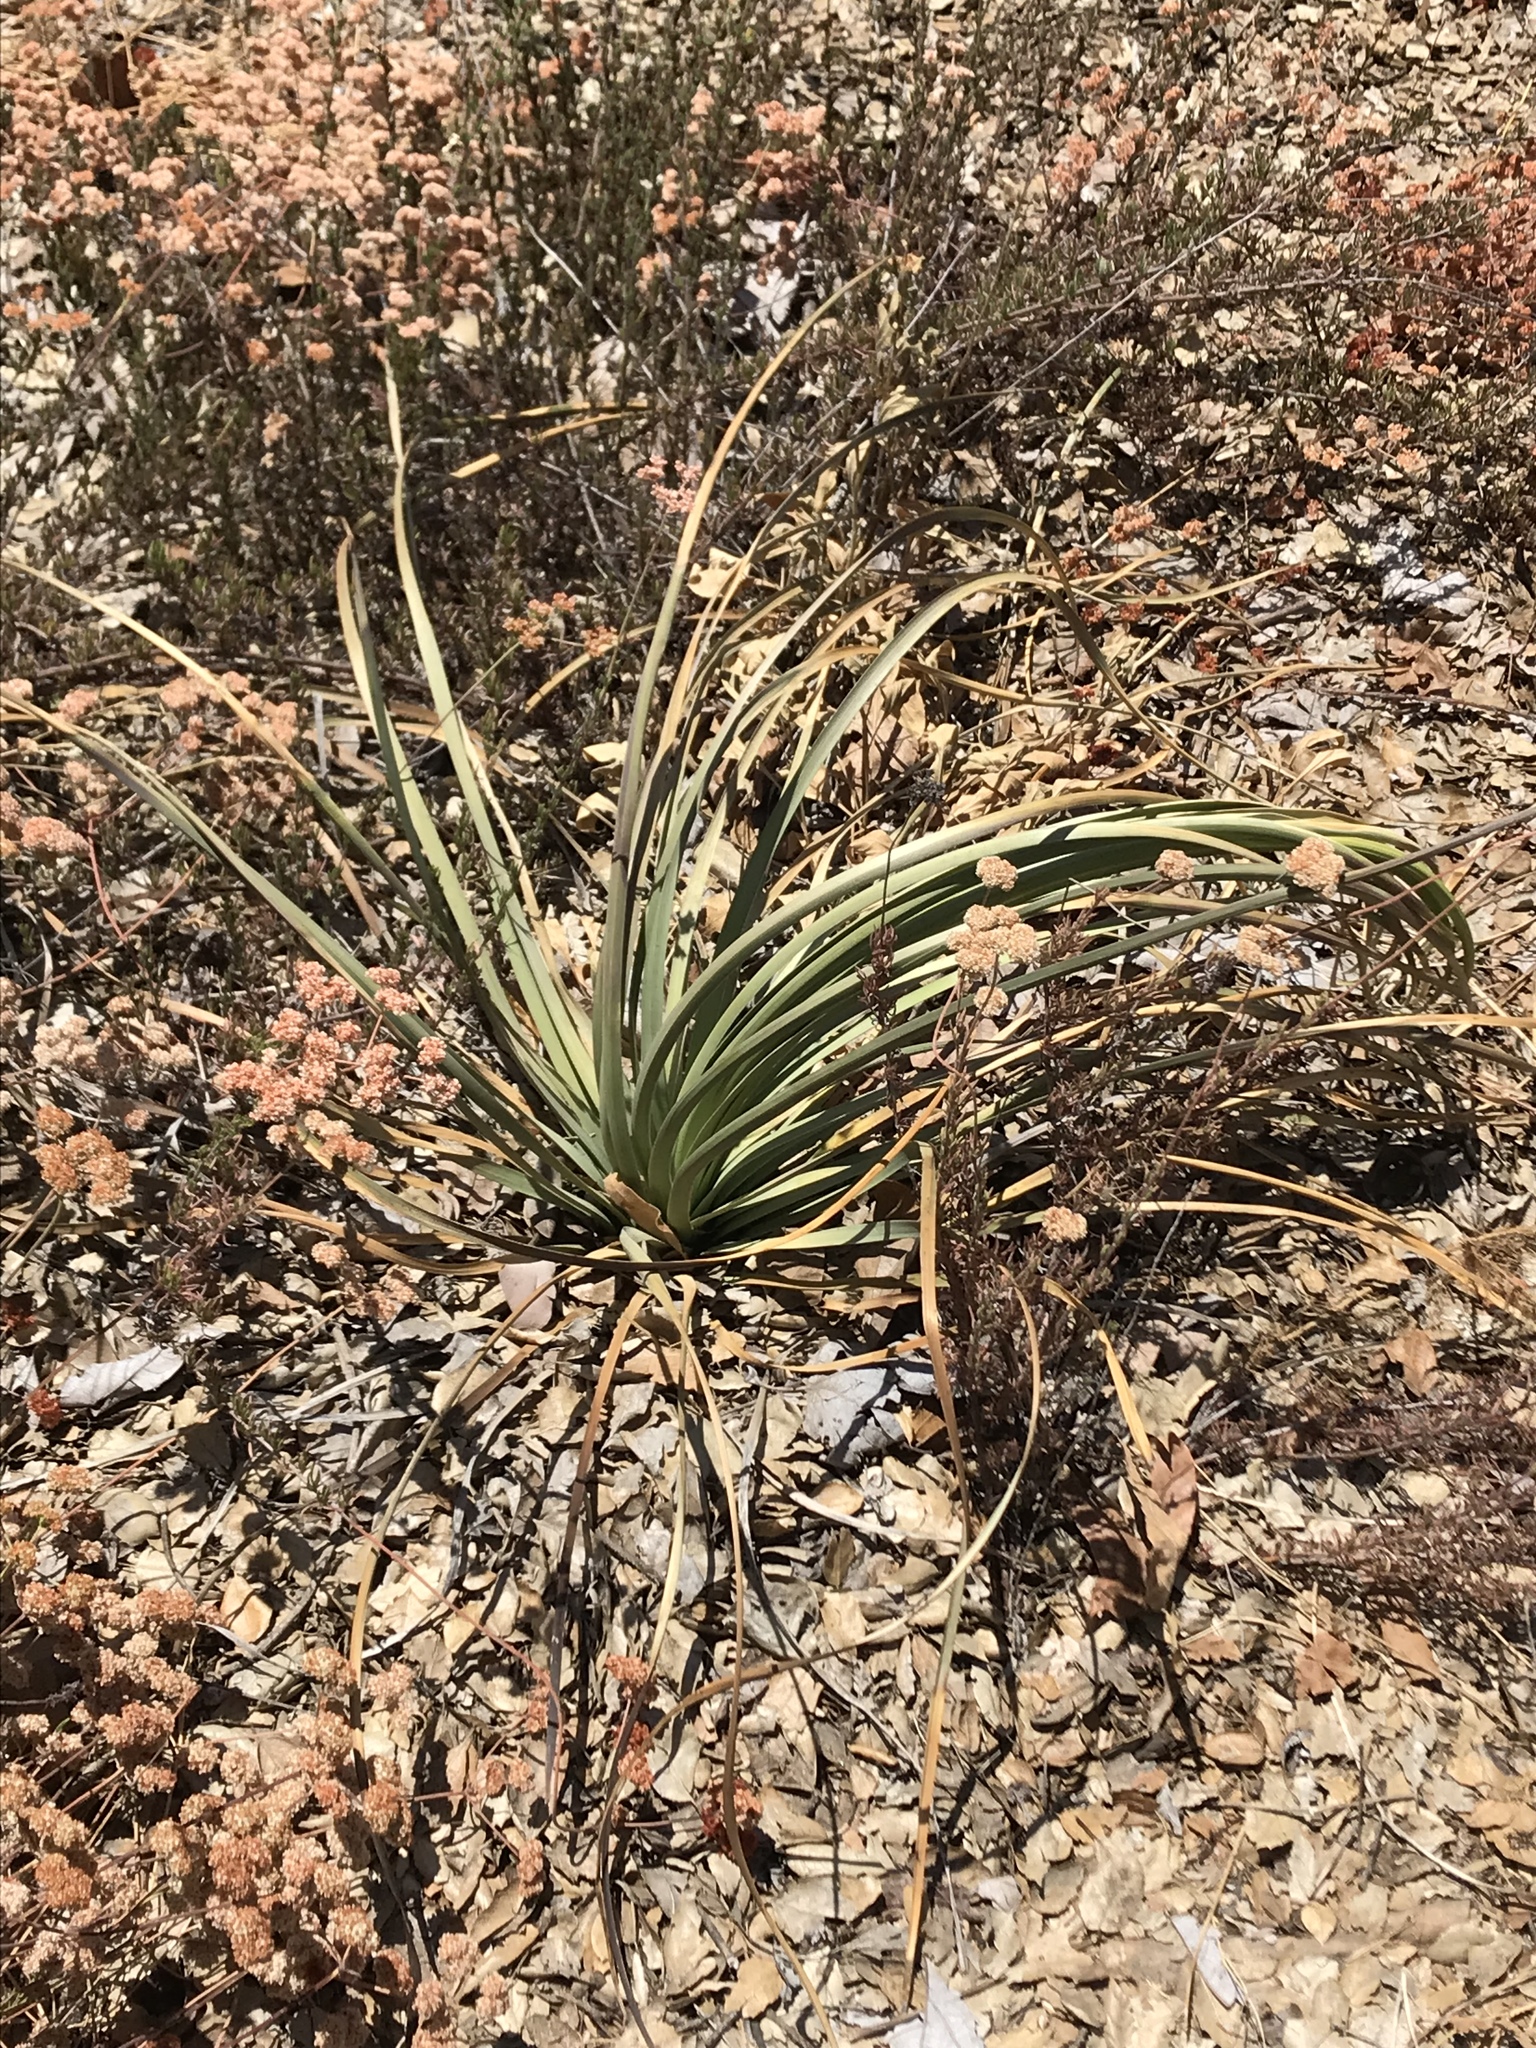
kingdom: Plantae
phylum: Tracheophyta
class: Liliopsida
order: Asparagales
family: Asparagaceae
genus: Hesperoyucca
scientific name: Hesperoyucca whipplei
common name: Our lord's-candle
